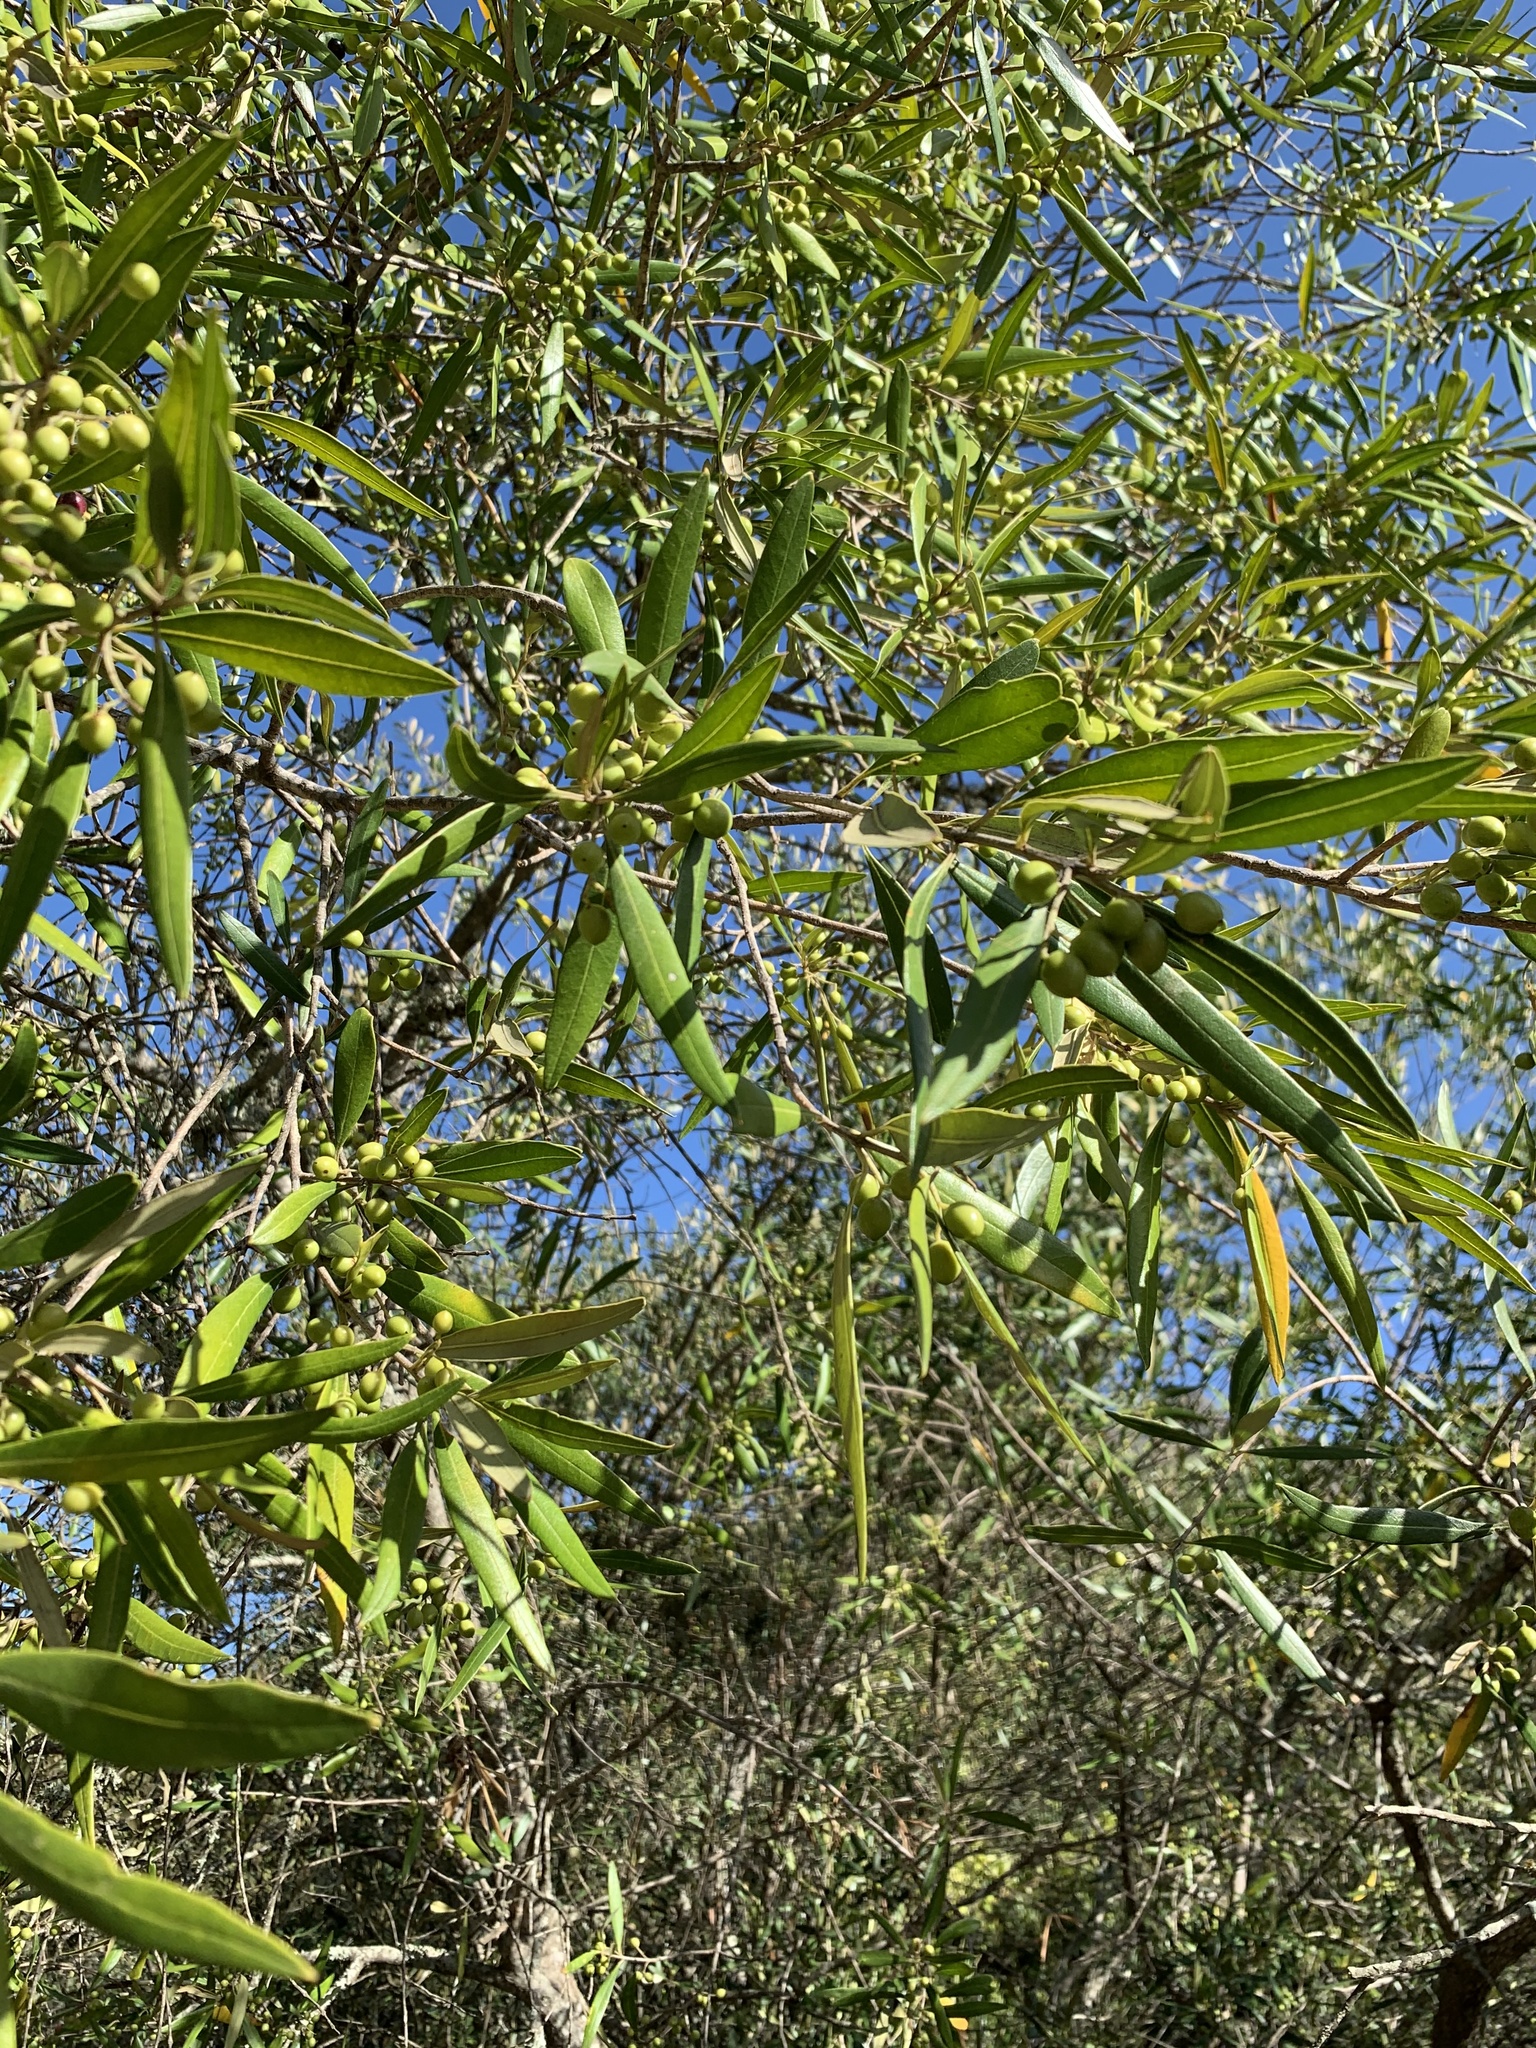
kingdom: Plantae
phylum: Tracheophyta
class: Magnoliopsida
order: Lamiales
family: Oleaceae
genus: Olea
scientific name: Olea europaea
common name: Olive
